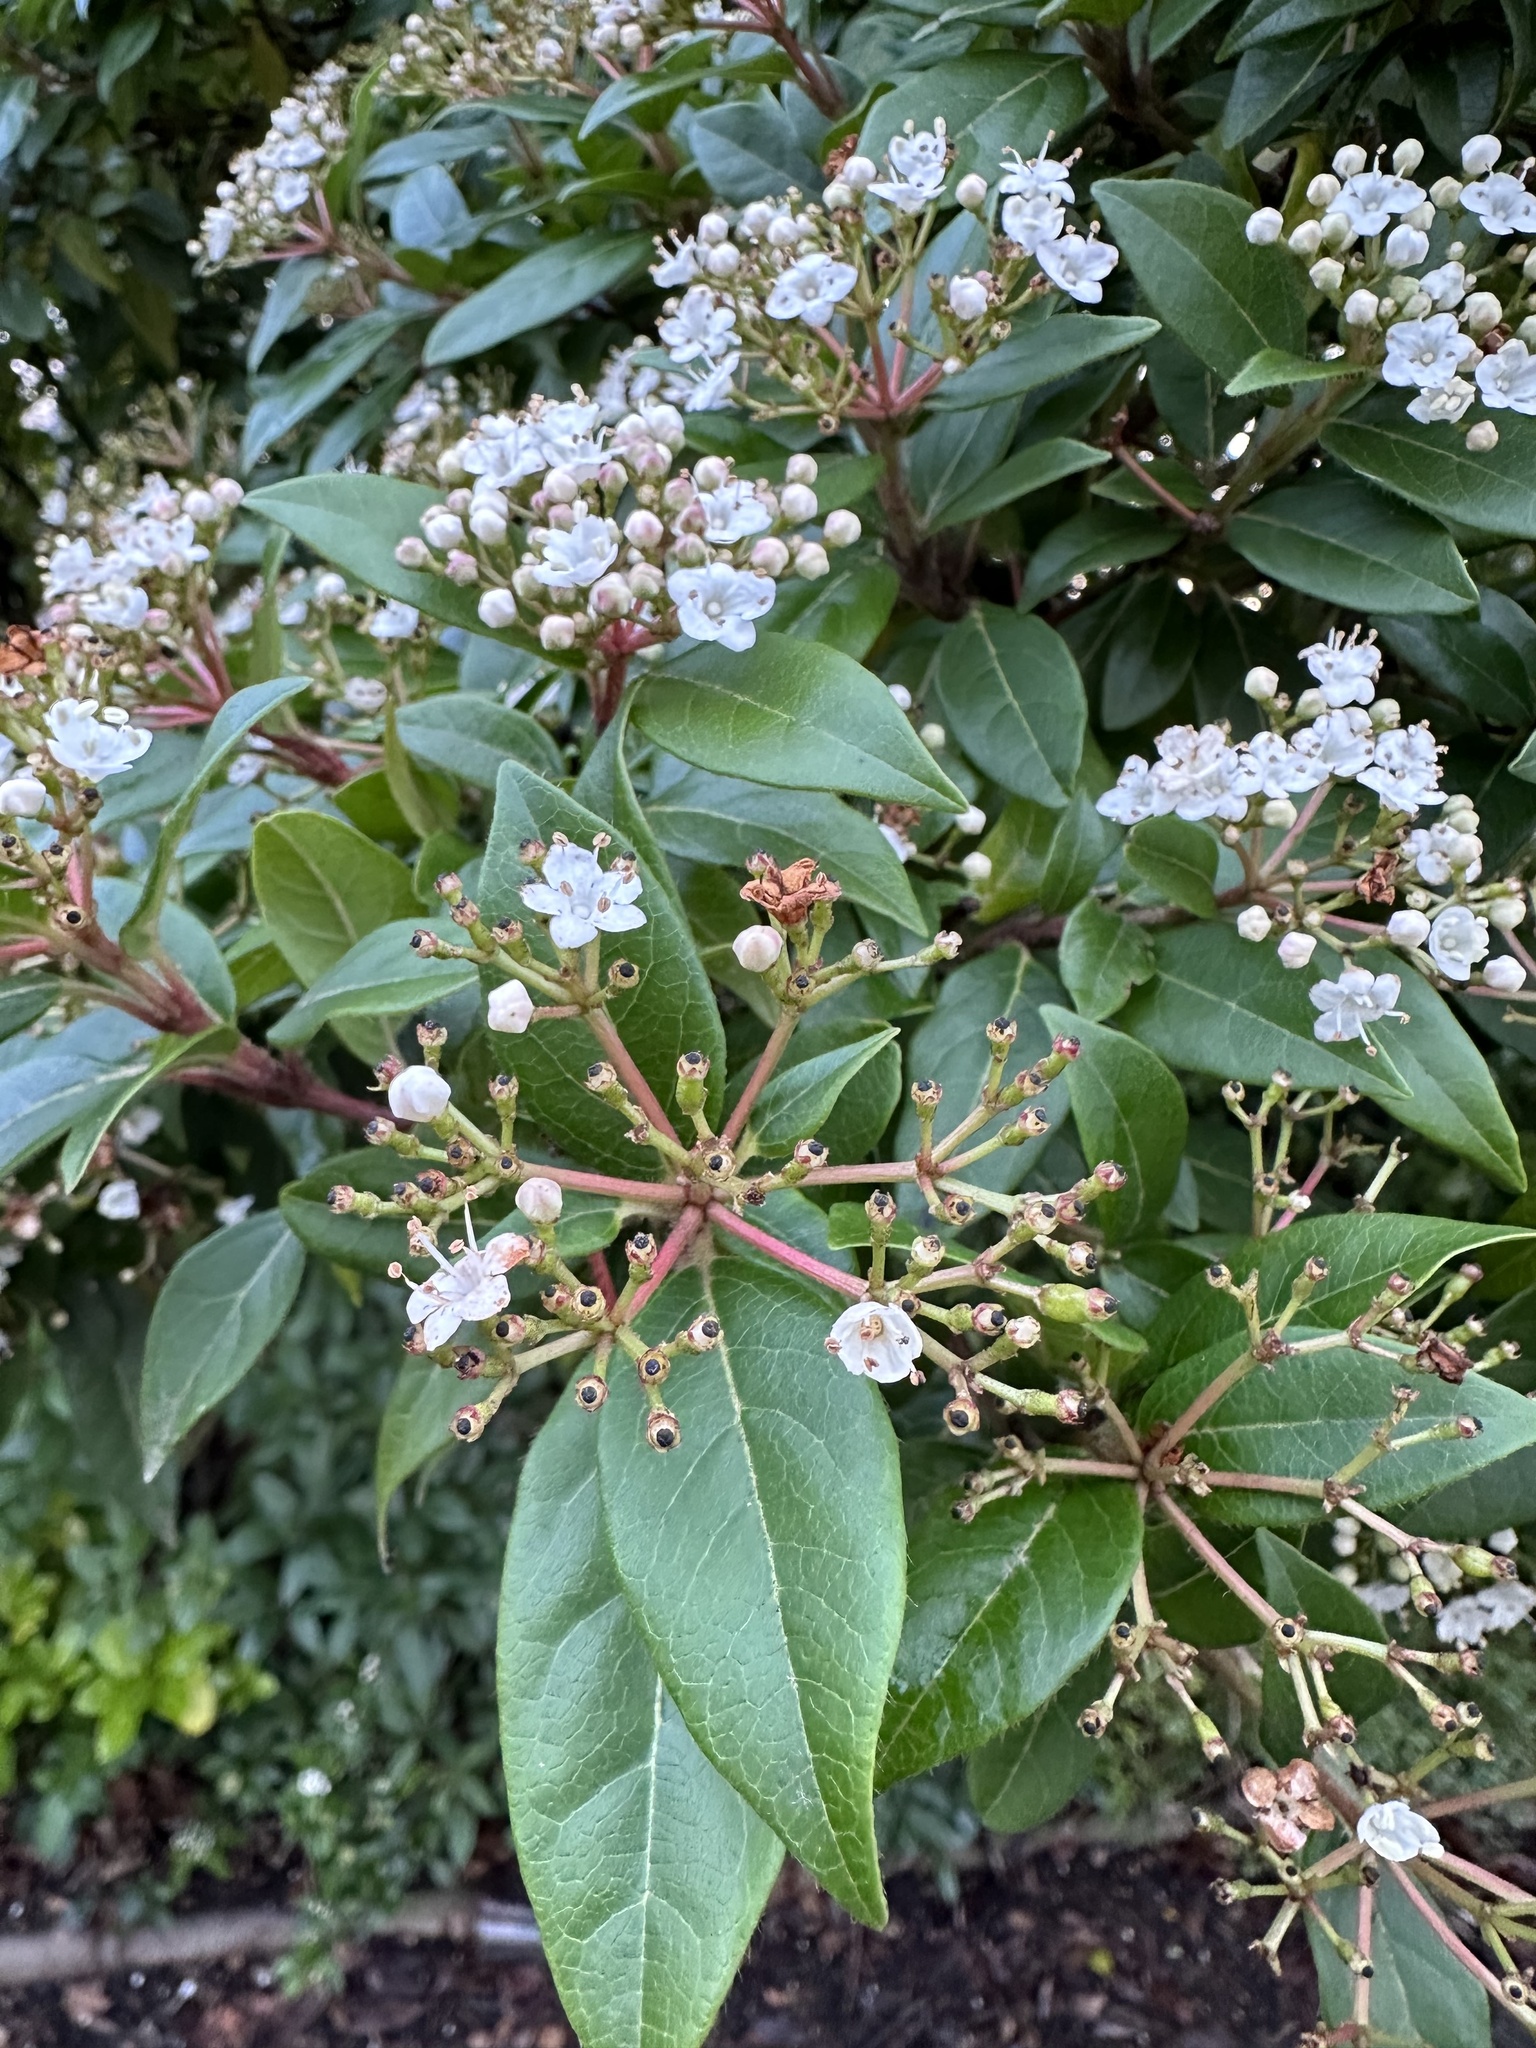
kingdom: Plantae
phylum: Tracheophyta
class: Magnoliopsida
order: Dipsacales
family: Viburnaceae
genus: Viburnum
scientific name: Viburnum tinus
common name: Laurustinus
